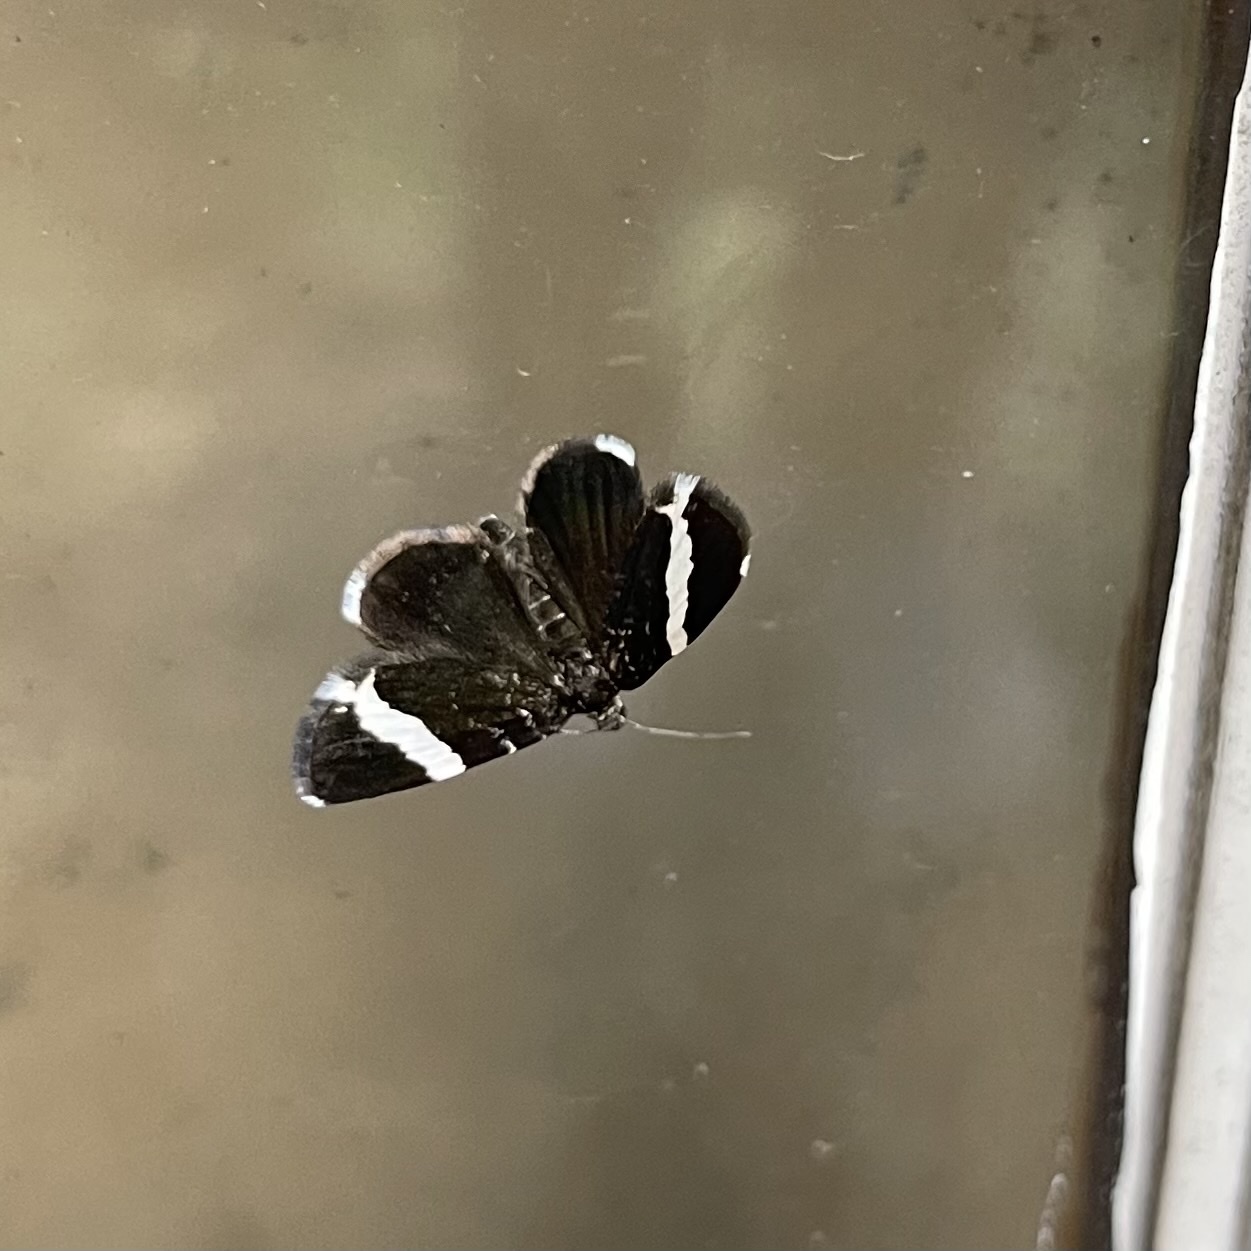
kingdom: Animalia
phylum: Arthropoda
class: Insecta
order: Lepidoptera
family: Geometridae
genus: Trichodezia
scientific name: Trichodezia albovittata
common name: White striped black
